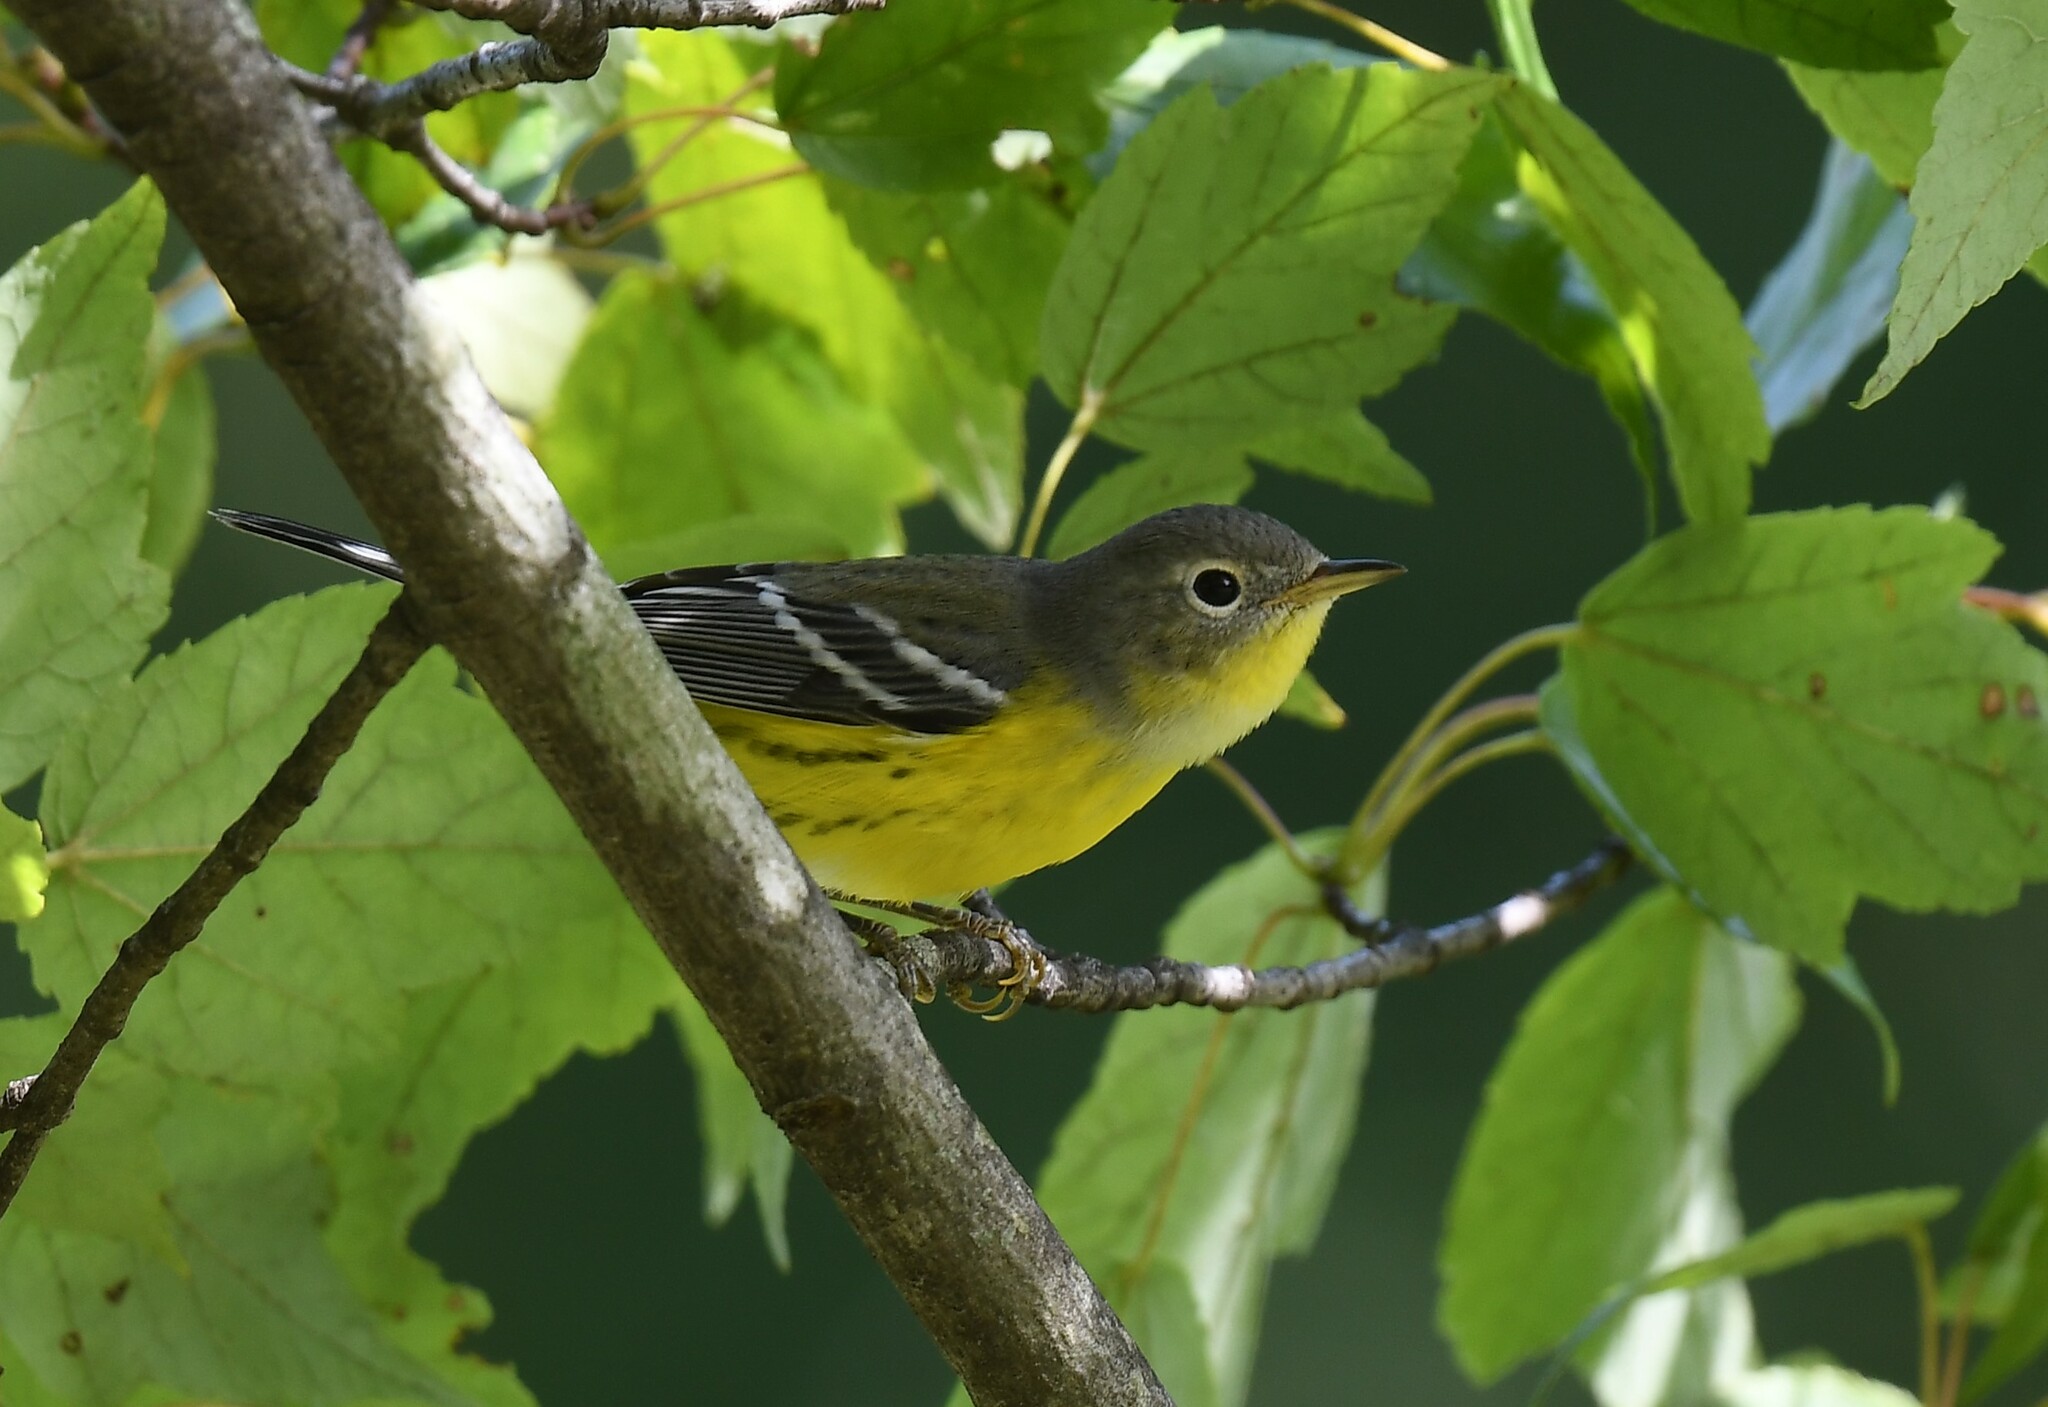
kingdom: Animalia
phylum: Chordata
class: Aves
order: Passeriformes
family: Parulidae
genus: Setophaga
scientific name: Setophaga magnolia
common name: Magnolia warbler
